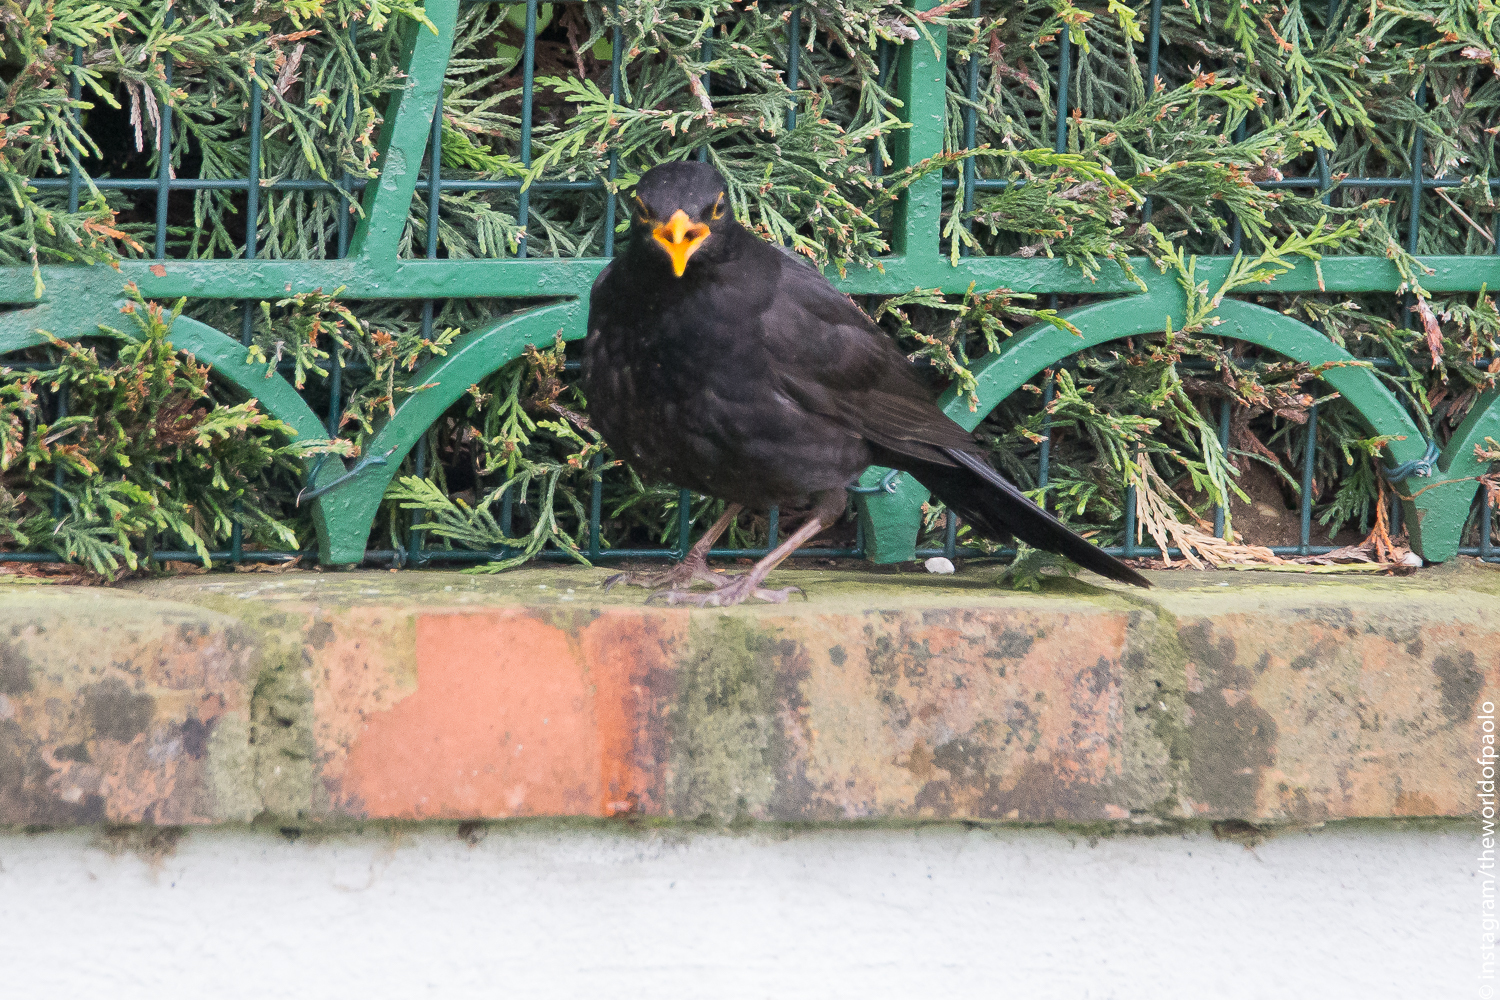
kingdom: Animalia
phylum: Chordata
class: Aves
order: Passeriformes
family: Turdidae
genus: Turdus
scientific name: Turdus merula
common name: Common blackbird
